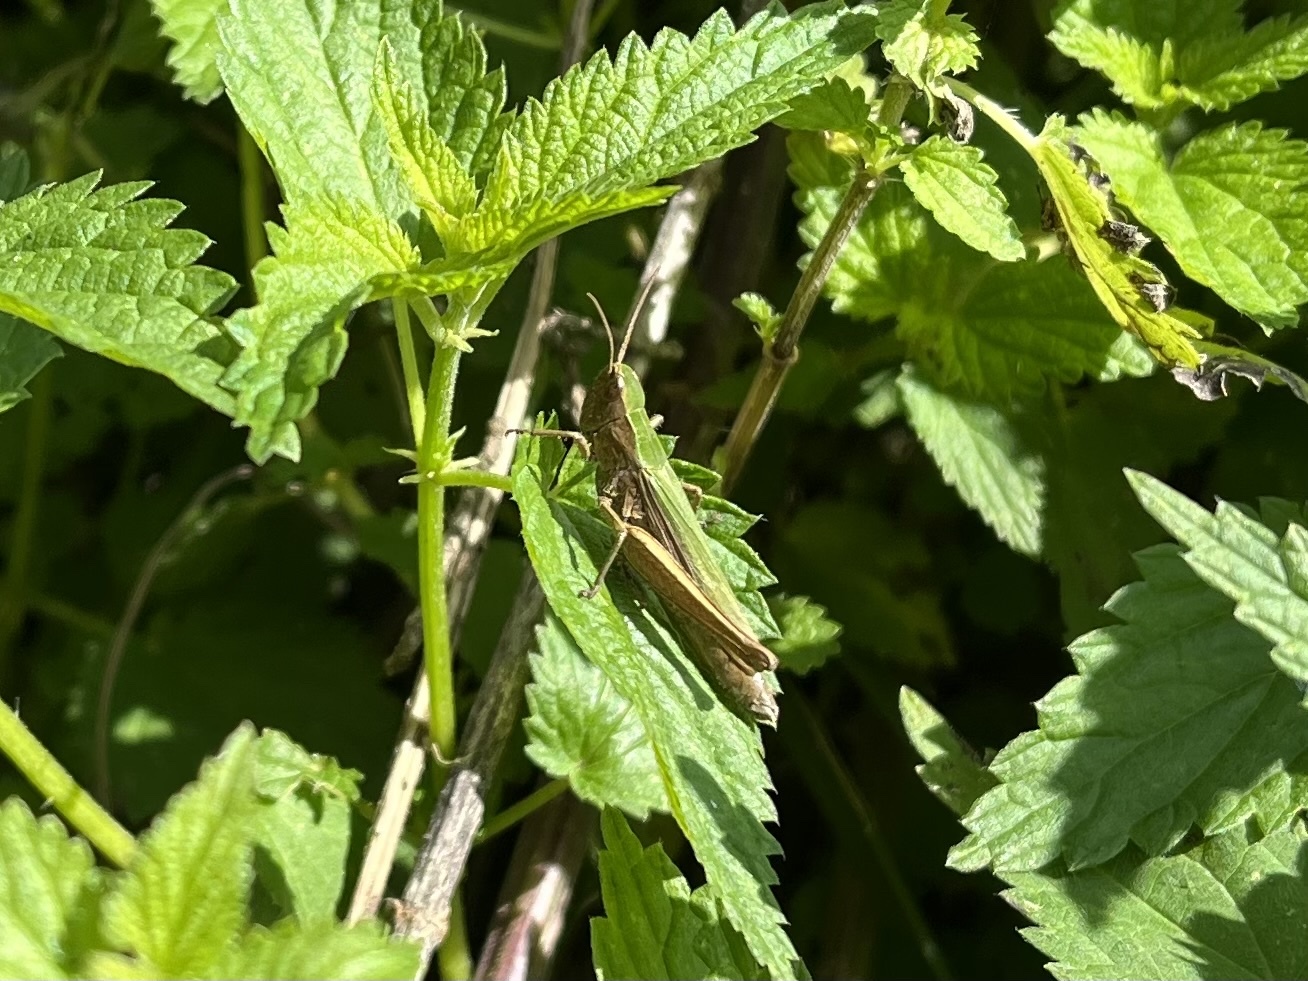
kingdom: Animalia
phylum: Arthropoda
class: Insecta
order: Orthoptera
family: Acrididae
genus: Chorthippus
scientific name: Chorthippus dorsatus
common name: Steppe grasshopper
